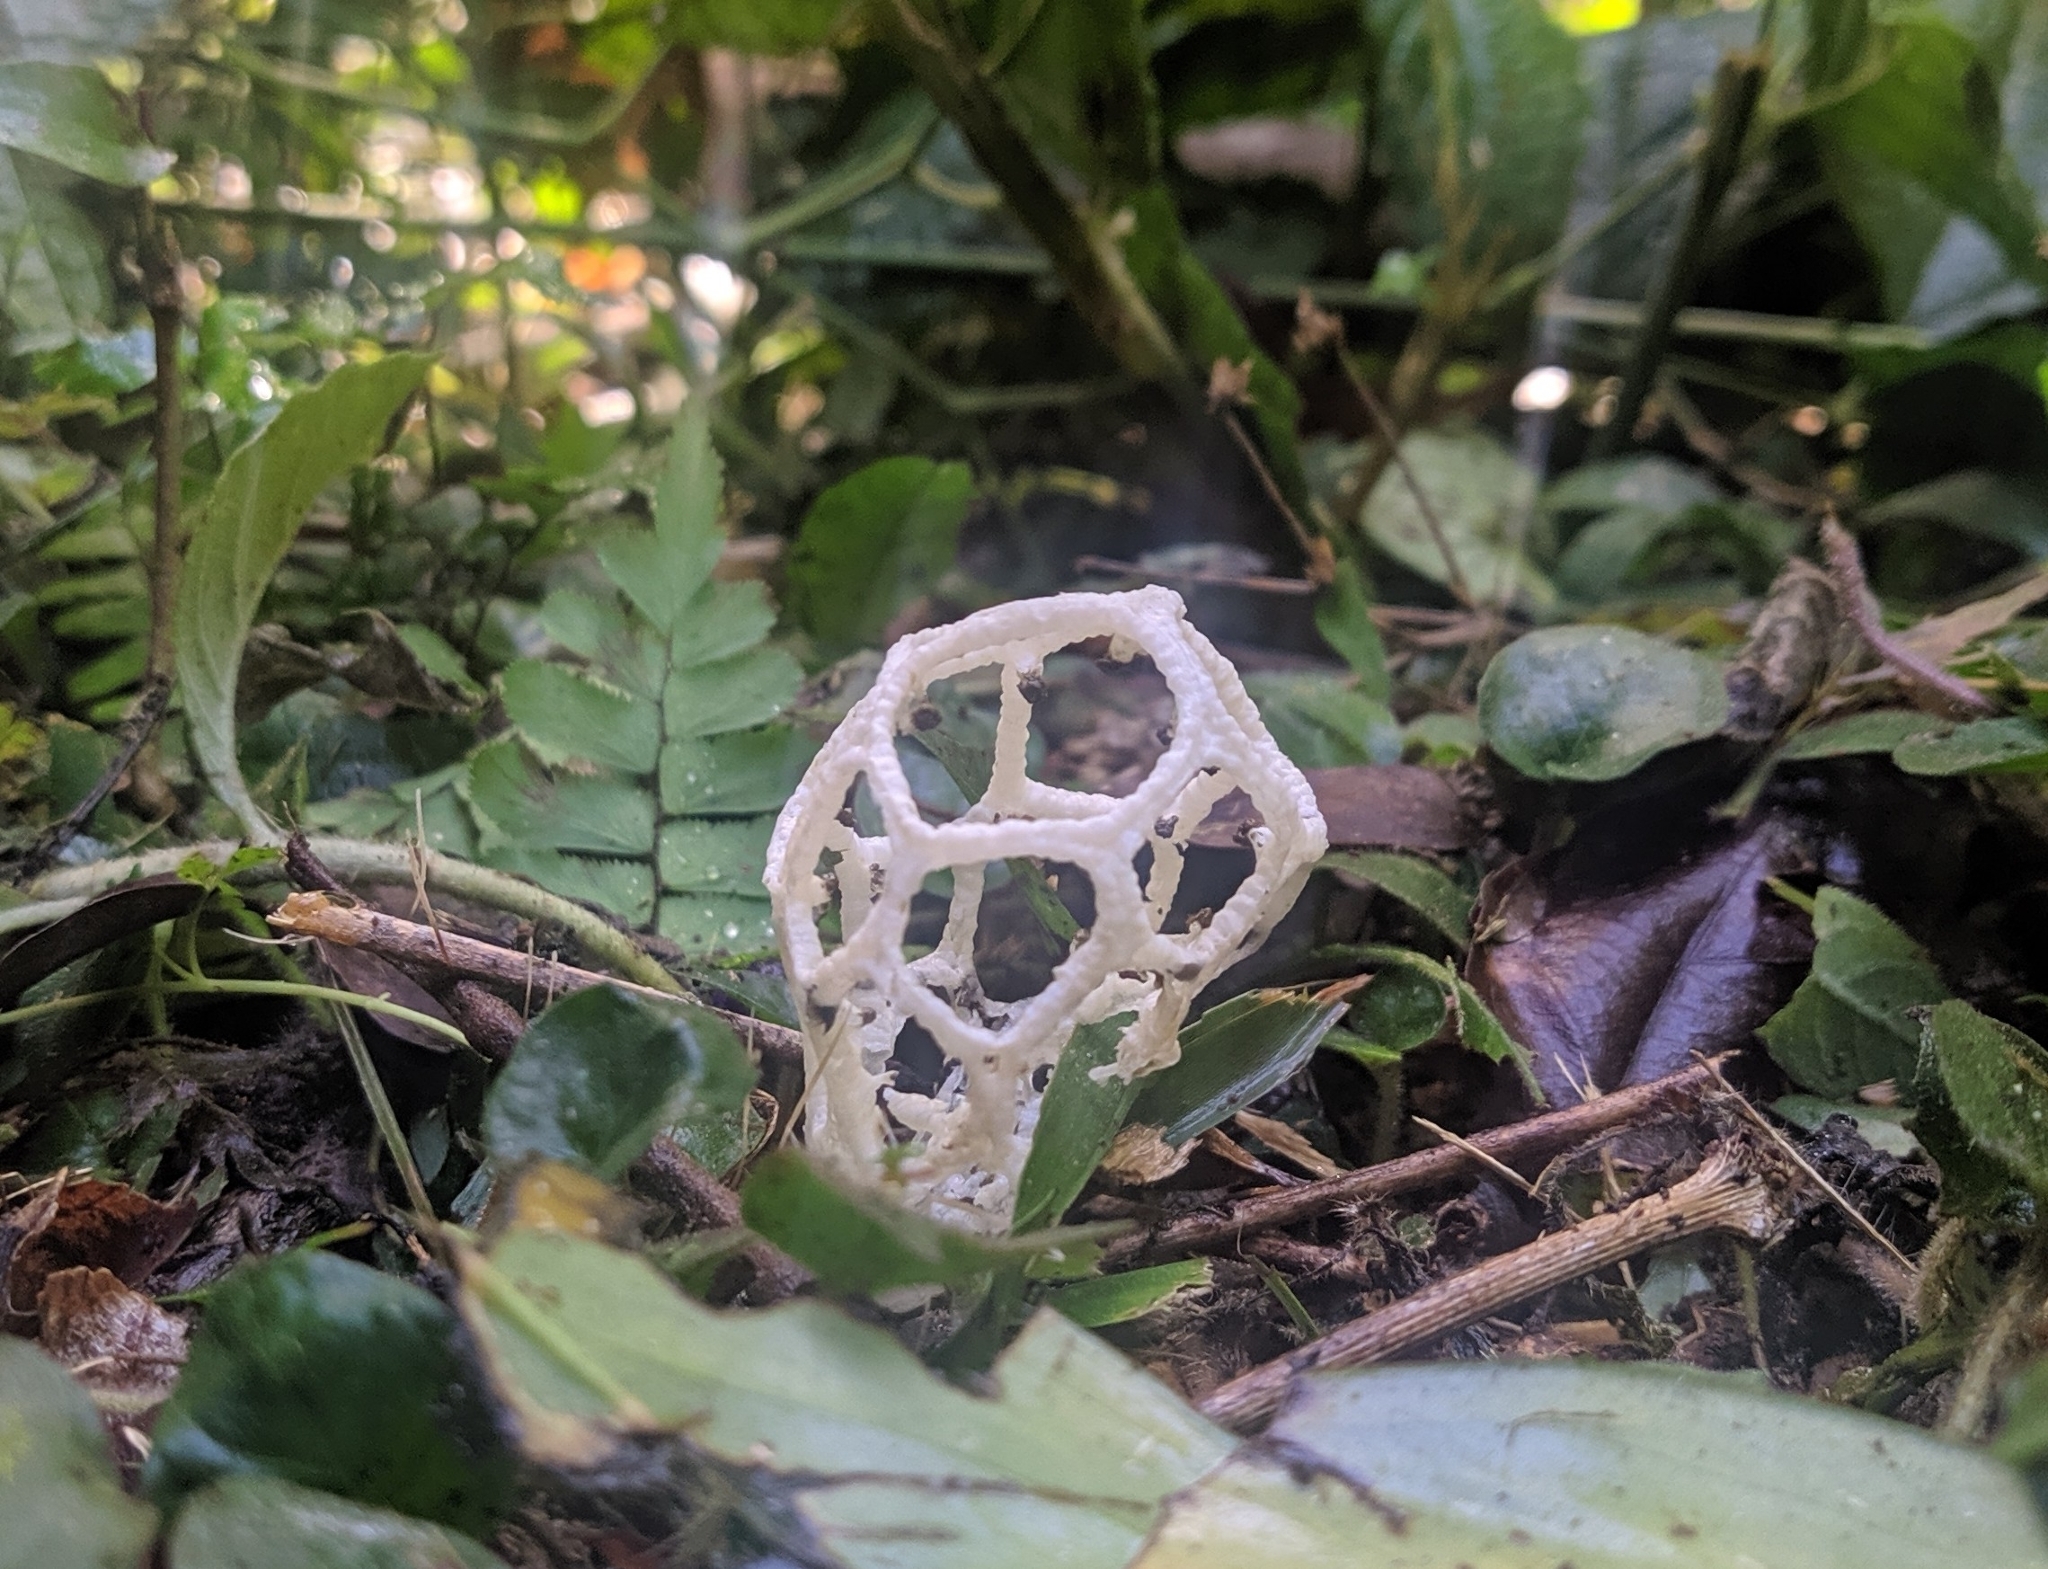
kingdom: Fungi
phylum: Basidiomycota
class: Agaricomycetes
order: Phallales
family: Phallaceae
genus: Clathrus
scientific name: Clathrus chrysomycelinus
